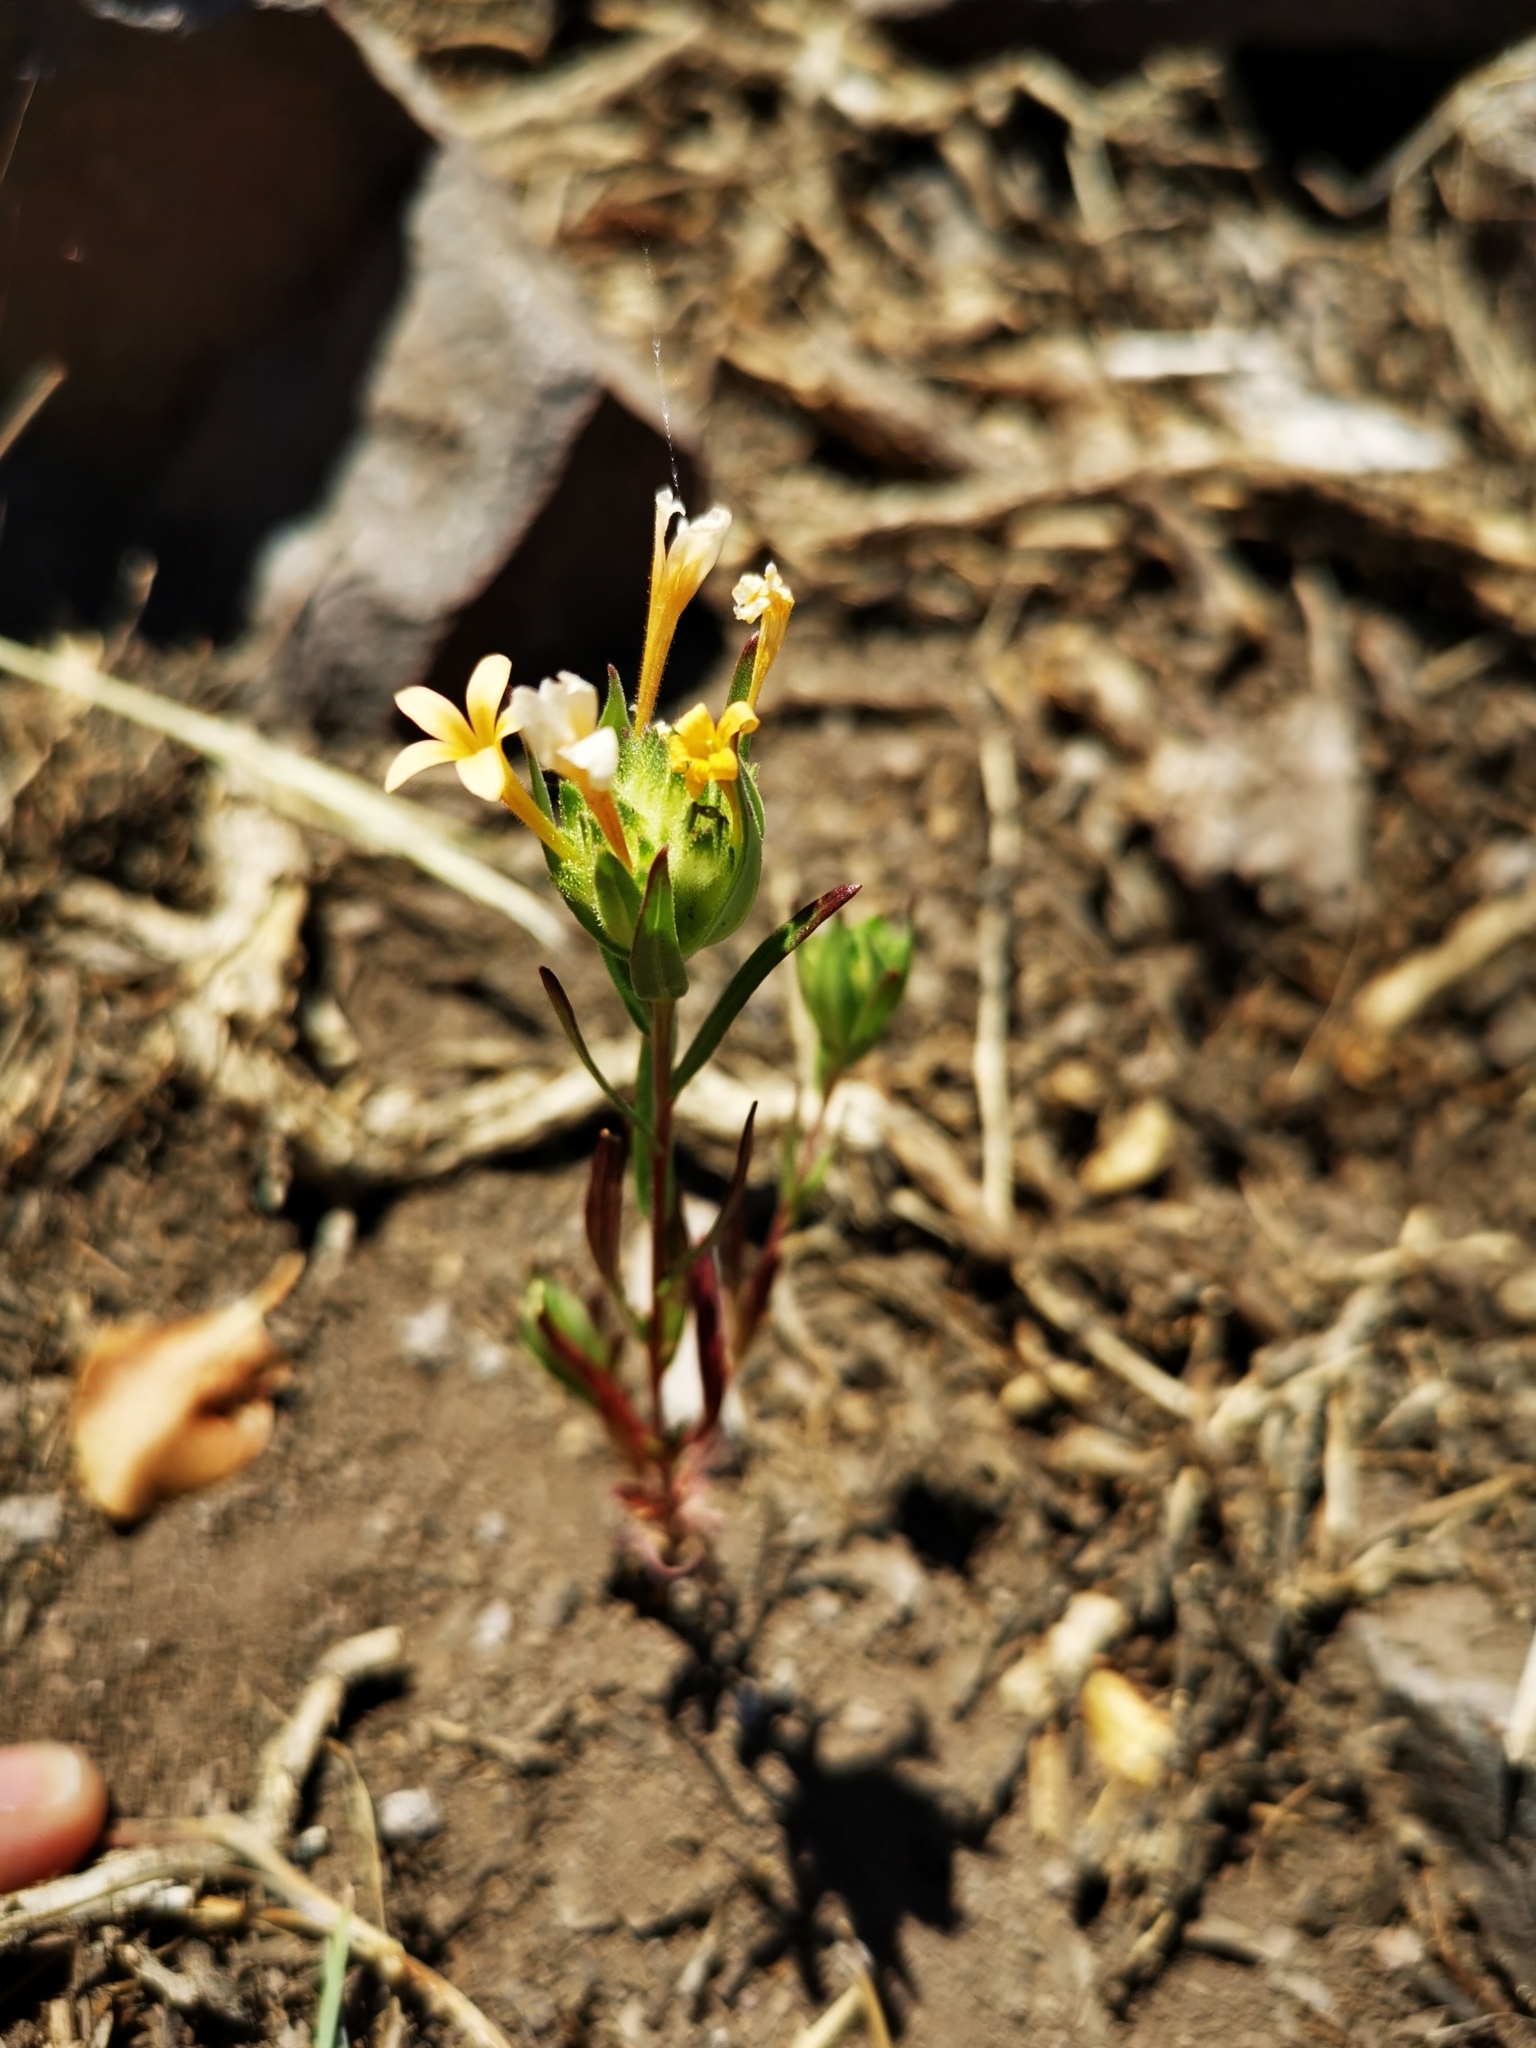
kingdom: Plantae
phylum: Tracheophyta
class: Magnoliopsida
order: Ericales
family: Polemoniaceae
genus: Collomia
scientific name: Collomia biflora
